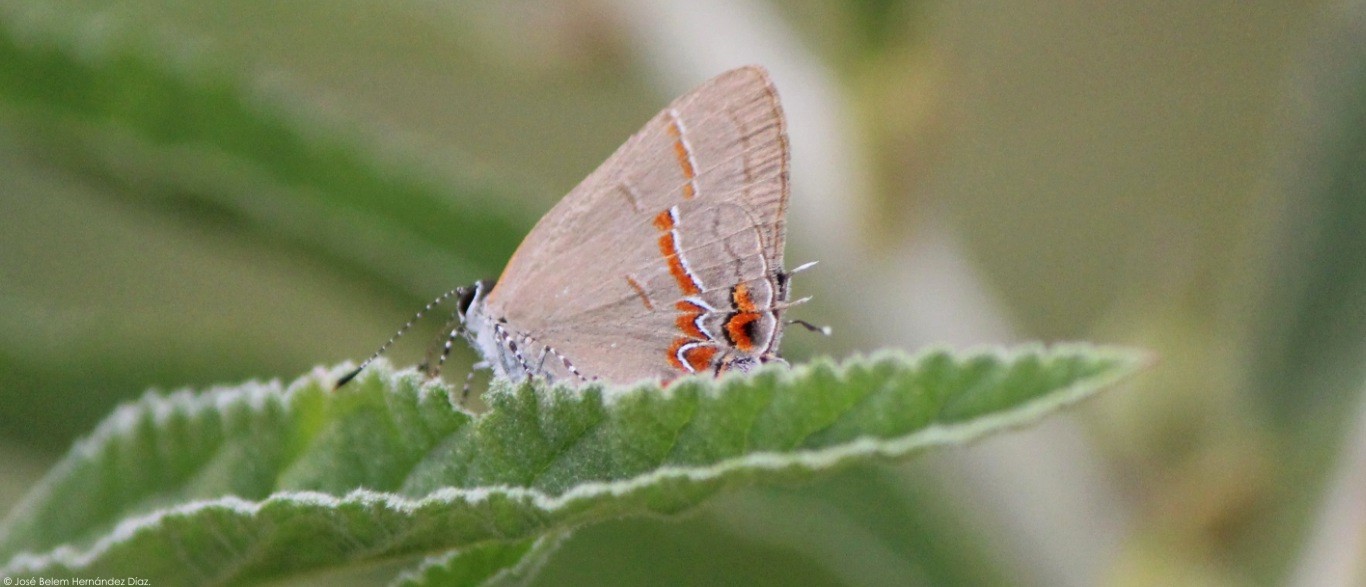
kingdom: Animalia
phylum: Arthropoda
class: Insecta
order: Lepidoptera
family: Lycaenidae
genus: Calycopis
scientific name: Calycopis isobeon
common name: Dusky-blue groundstreak
